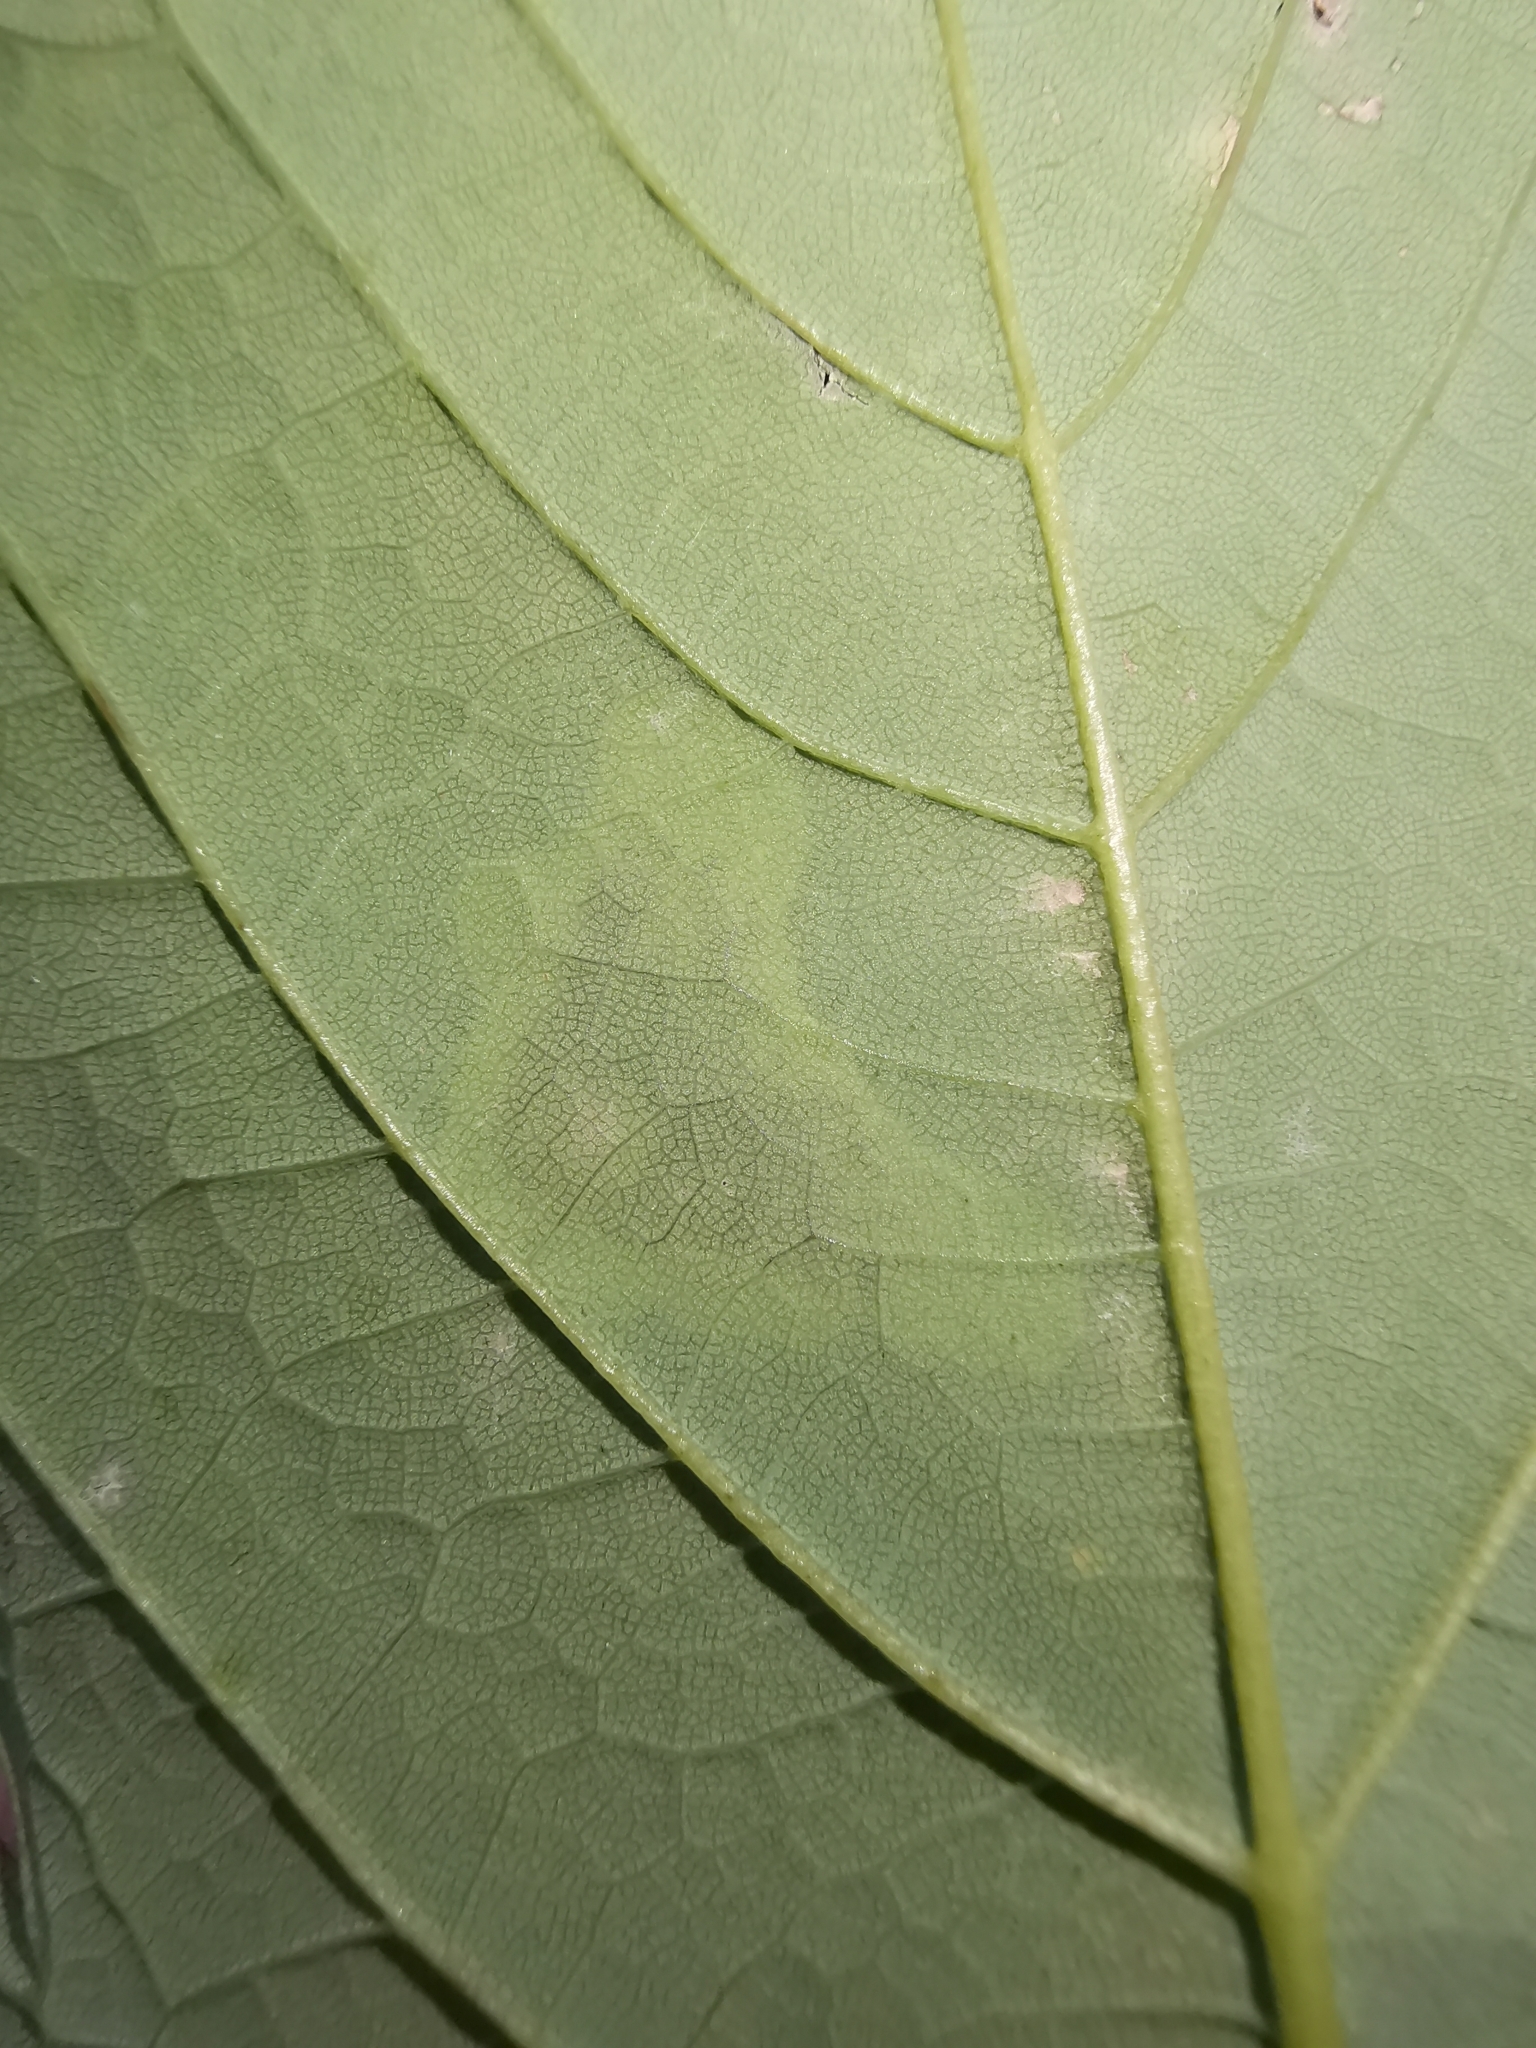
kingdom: Animalia
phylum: Arthropoda
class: Insecta
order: Lepidoptera
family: Gracillariidae
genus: Cameraria
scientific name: Cameraria ohridella
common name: Horse-chestnut leaf-miner
